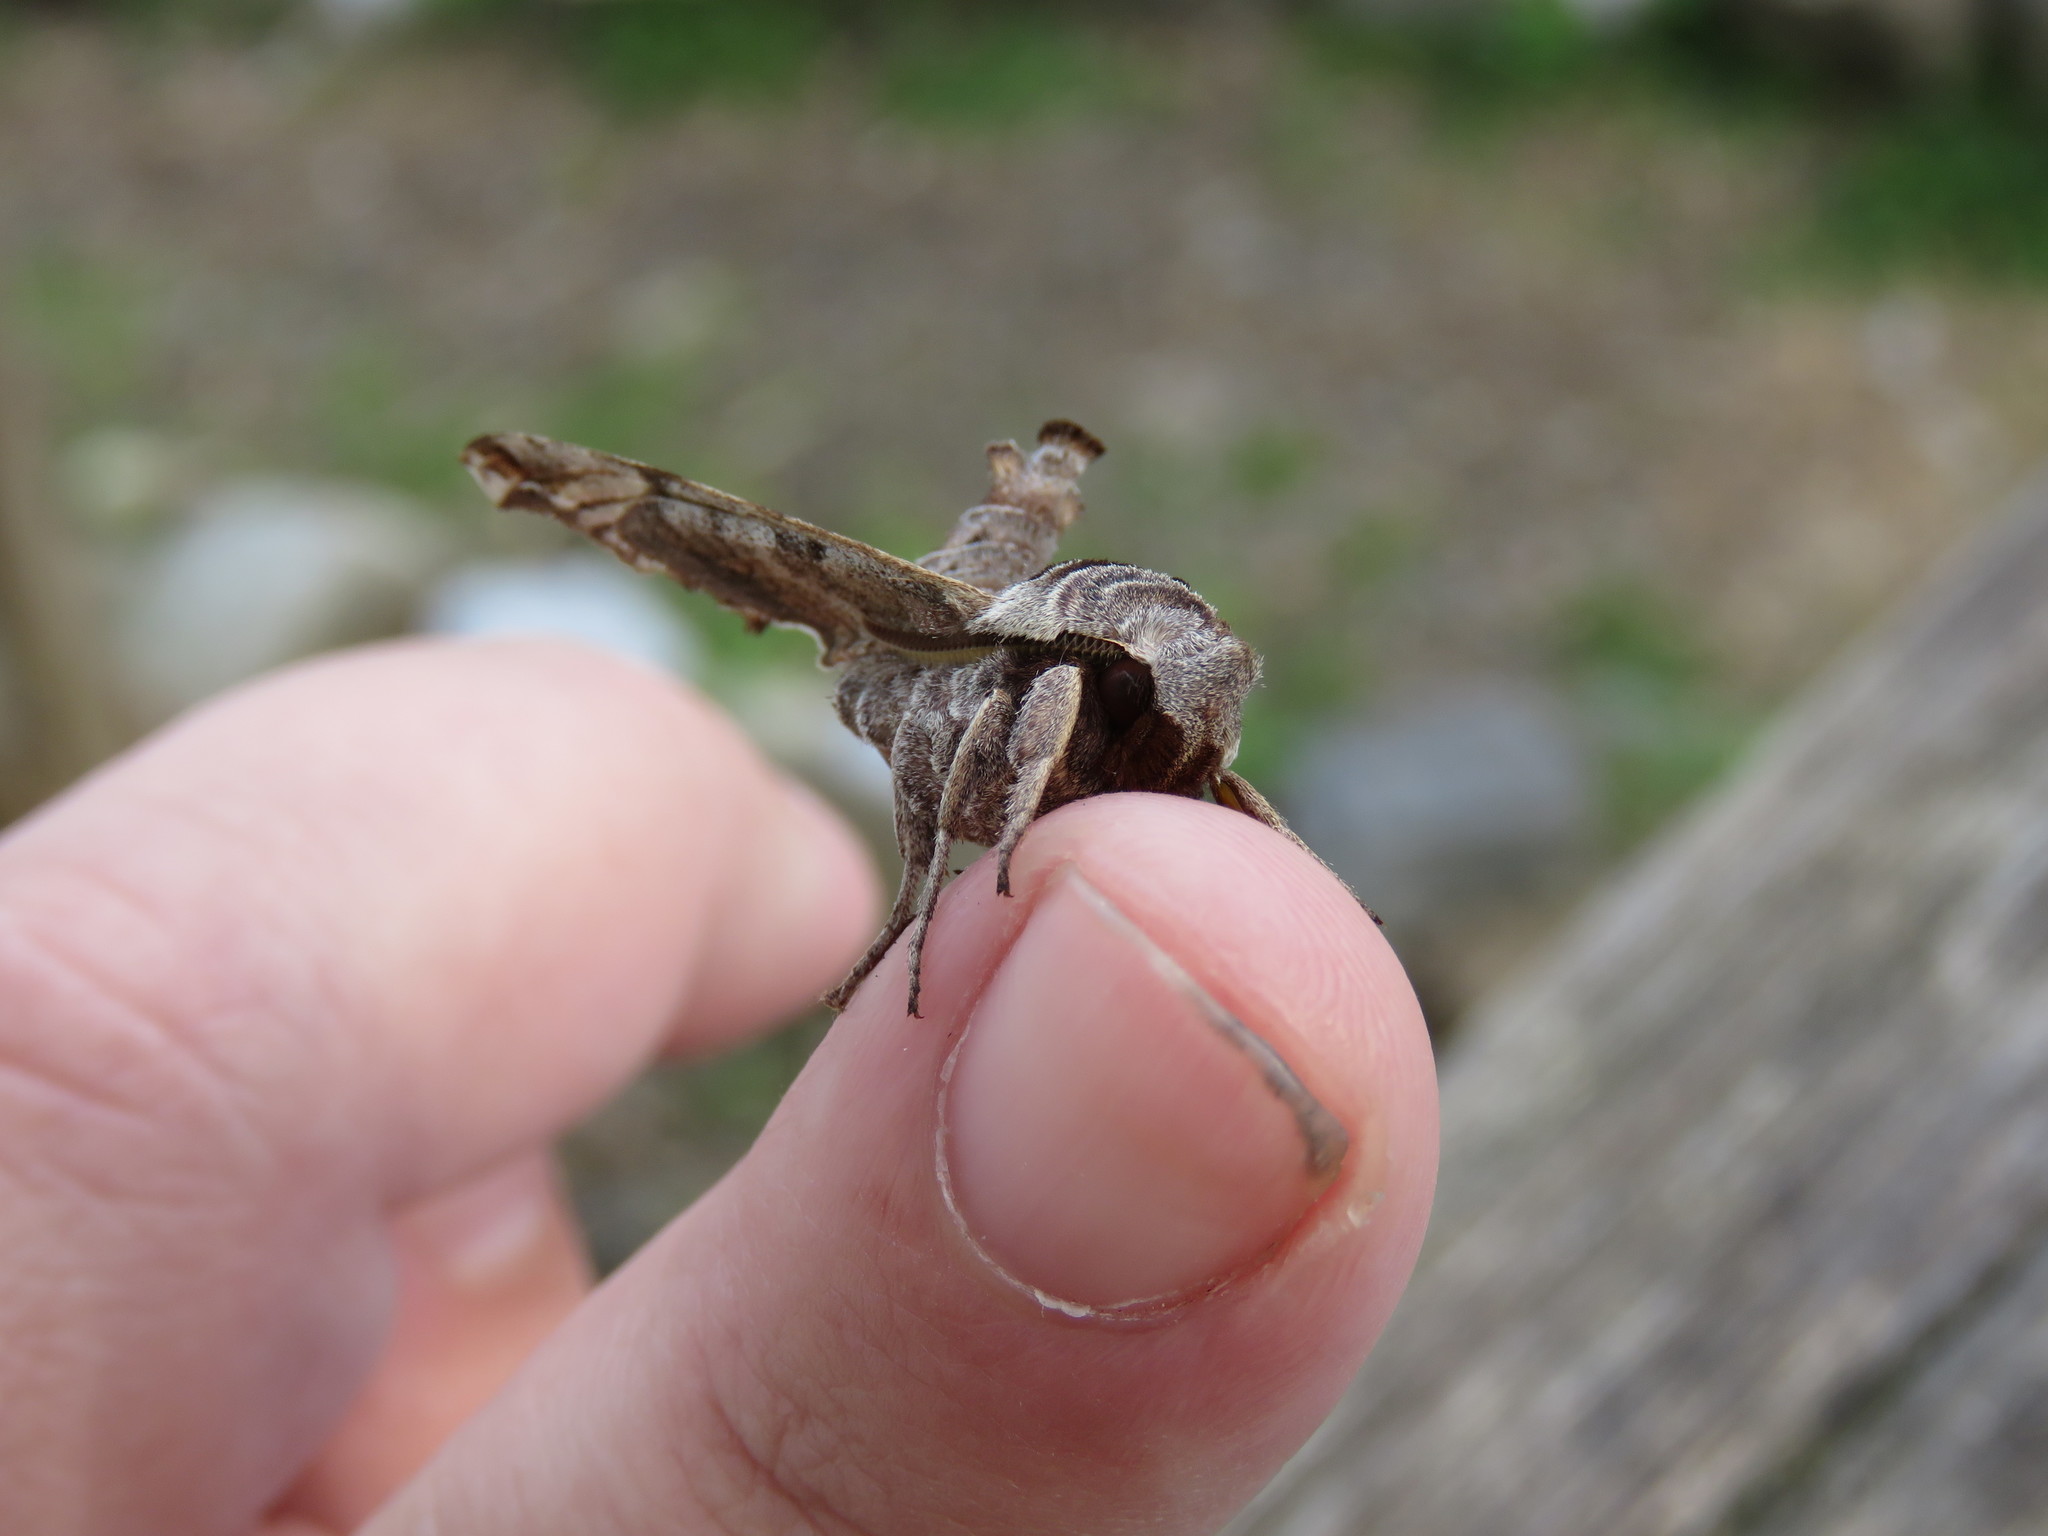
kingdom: Animalia
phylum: Arthropoda
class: Insecta
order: Lepidoptera
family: Sphingidae
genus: Deidamia
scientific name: Deidamia inscriptum
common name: Lettered sphinx
